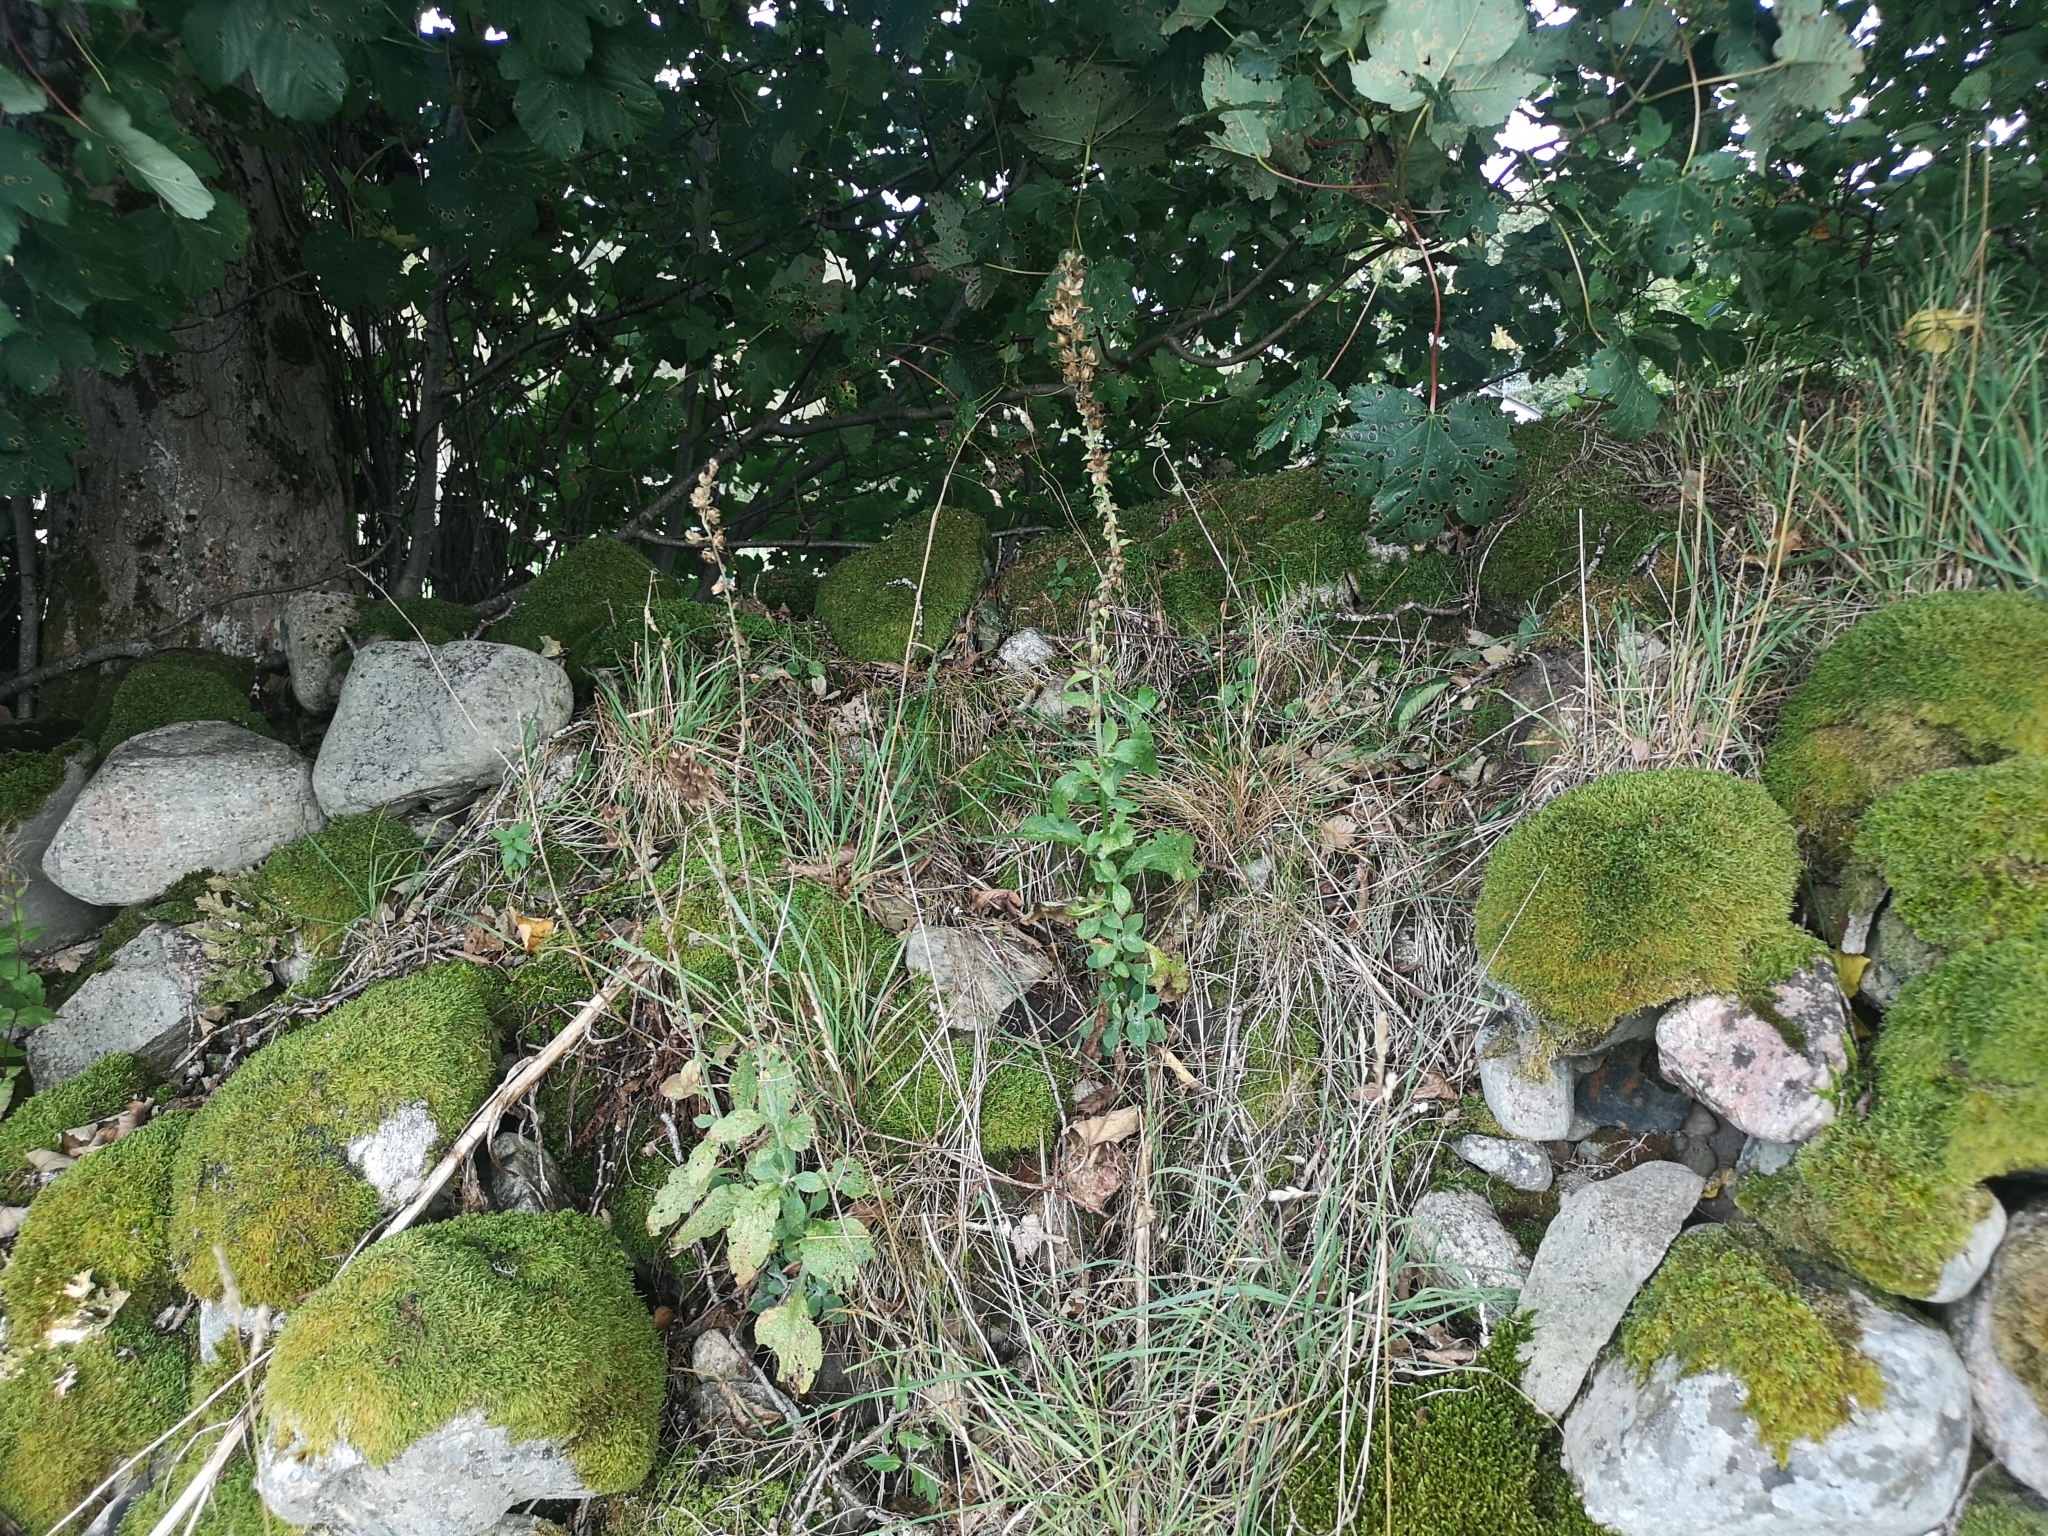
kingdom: Plantae
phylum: Tracheophyta
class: Magnoliopsida
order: Lamiales
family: Plantaginaceae
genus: Digitalis
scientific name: Digitalis purpurea
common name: Foxglove
